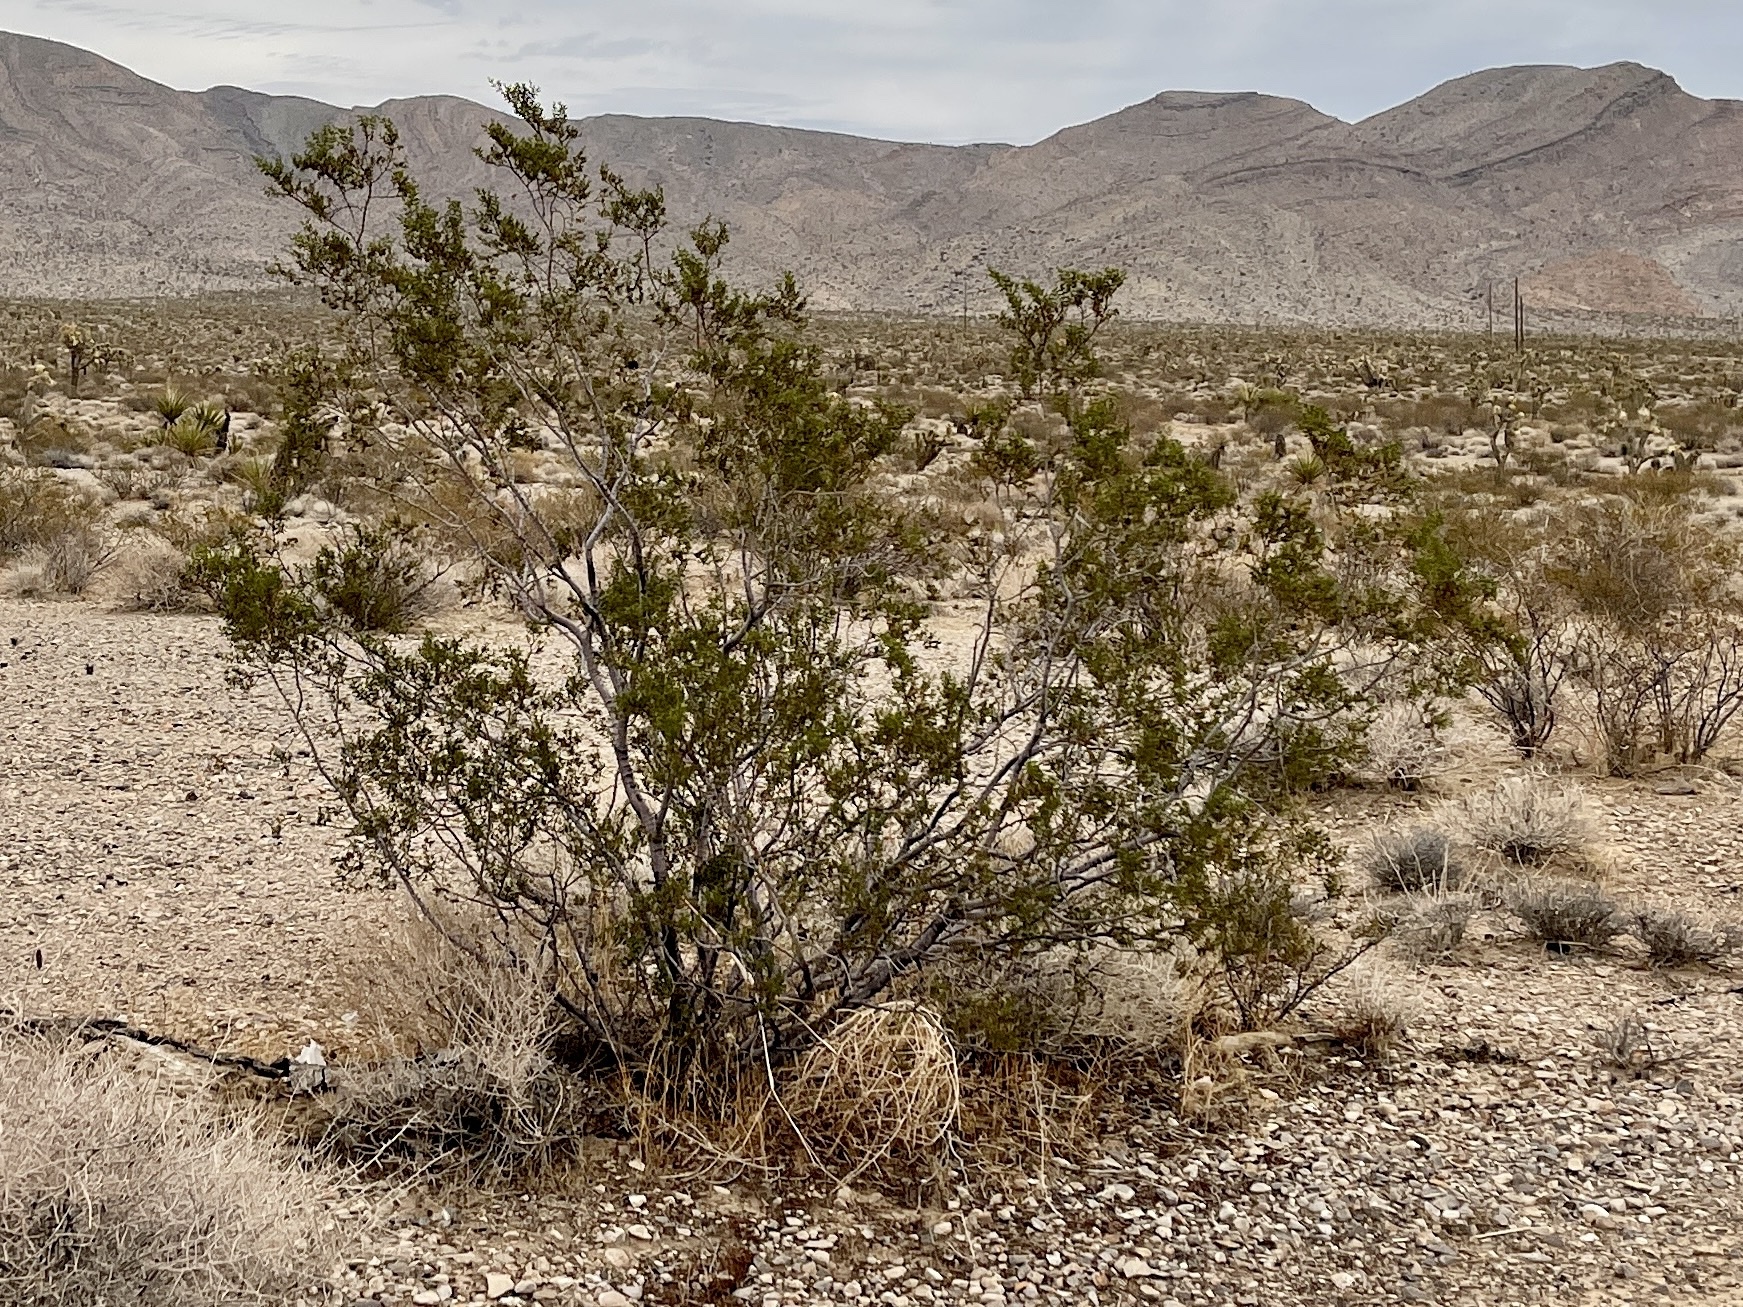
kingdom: Plantae
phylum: Tracheophyta
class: Magnoliopsida
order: Zygophyllales
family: Zygophyllaceae
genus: Larrea
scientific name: Larrea tridentata
